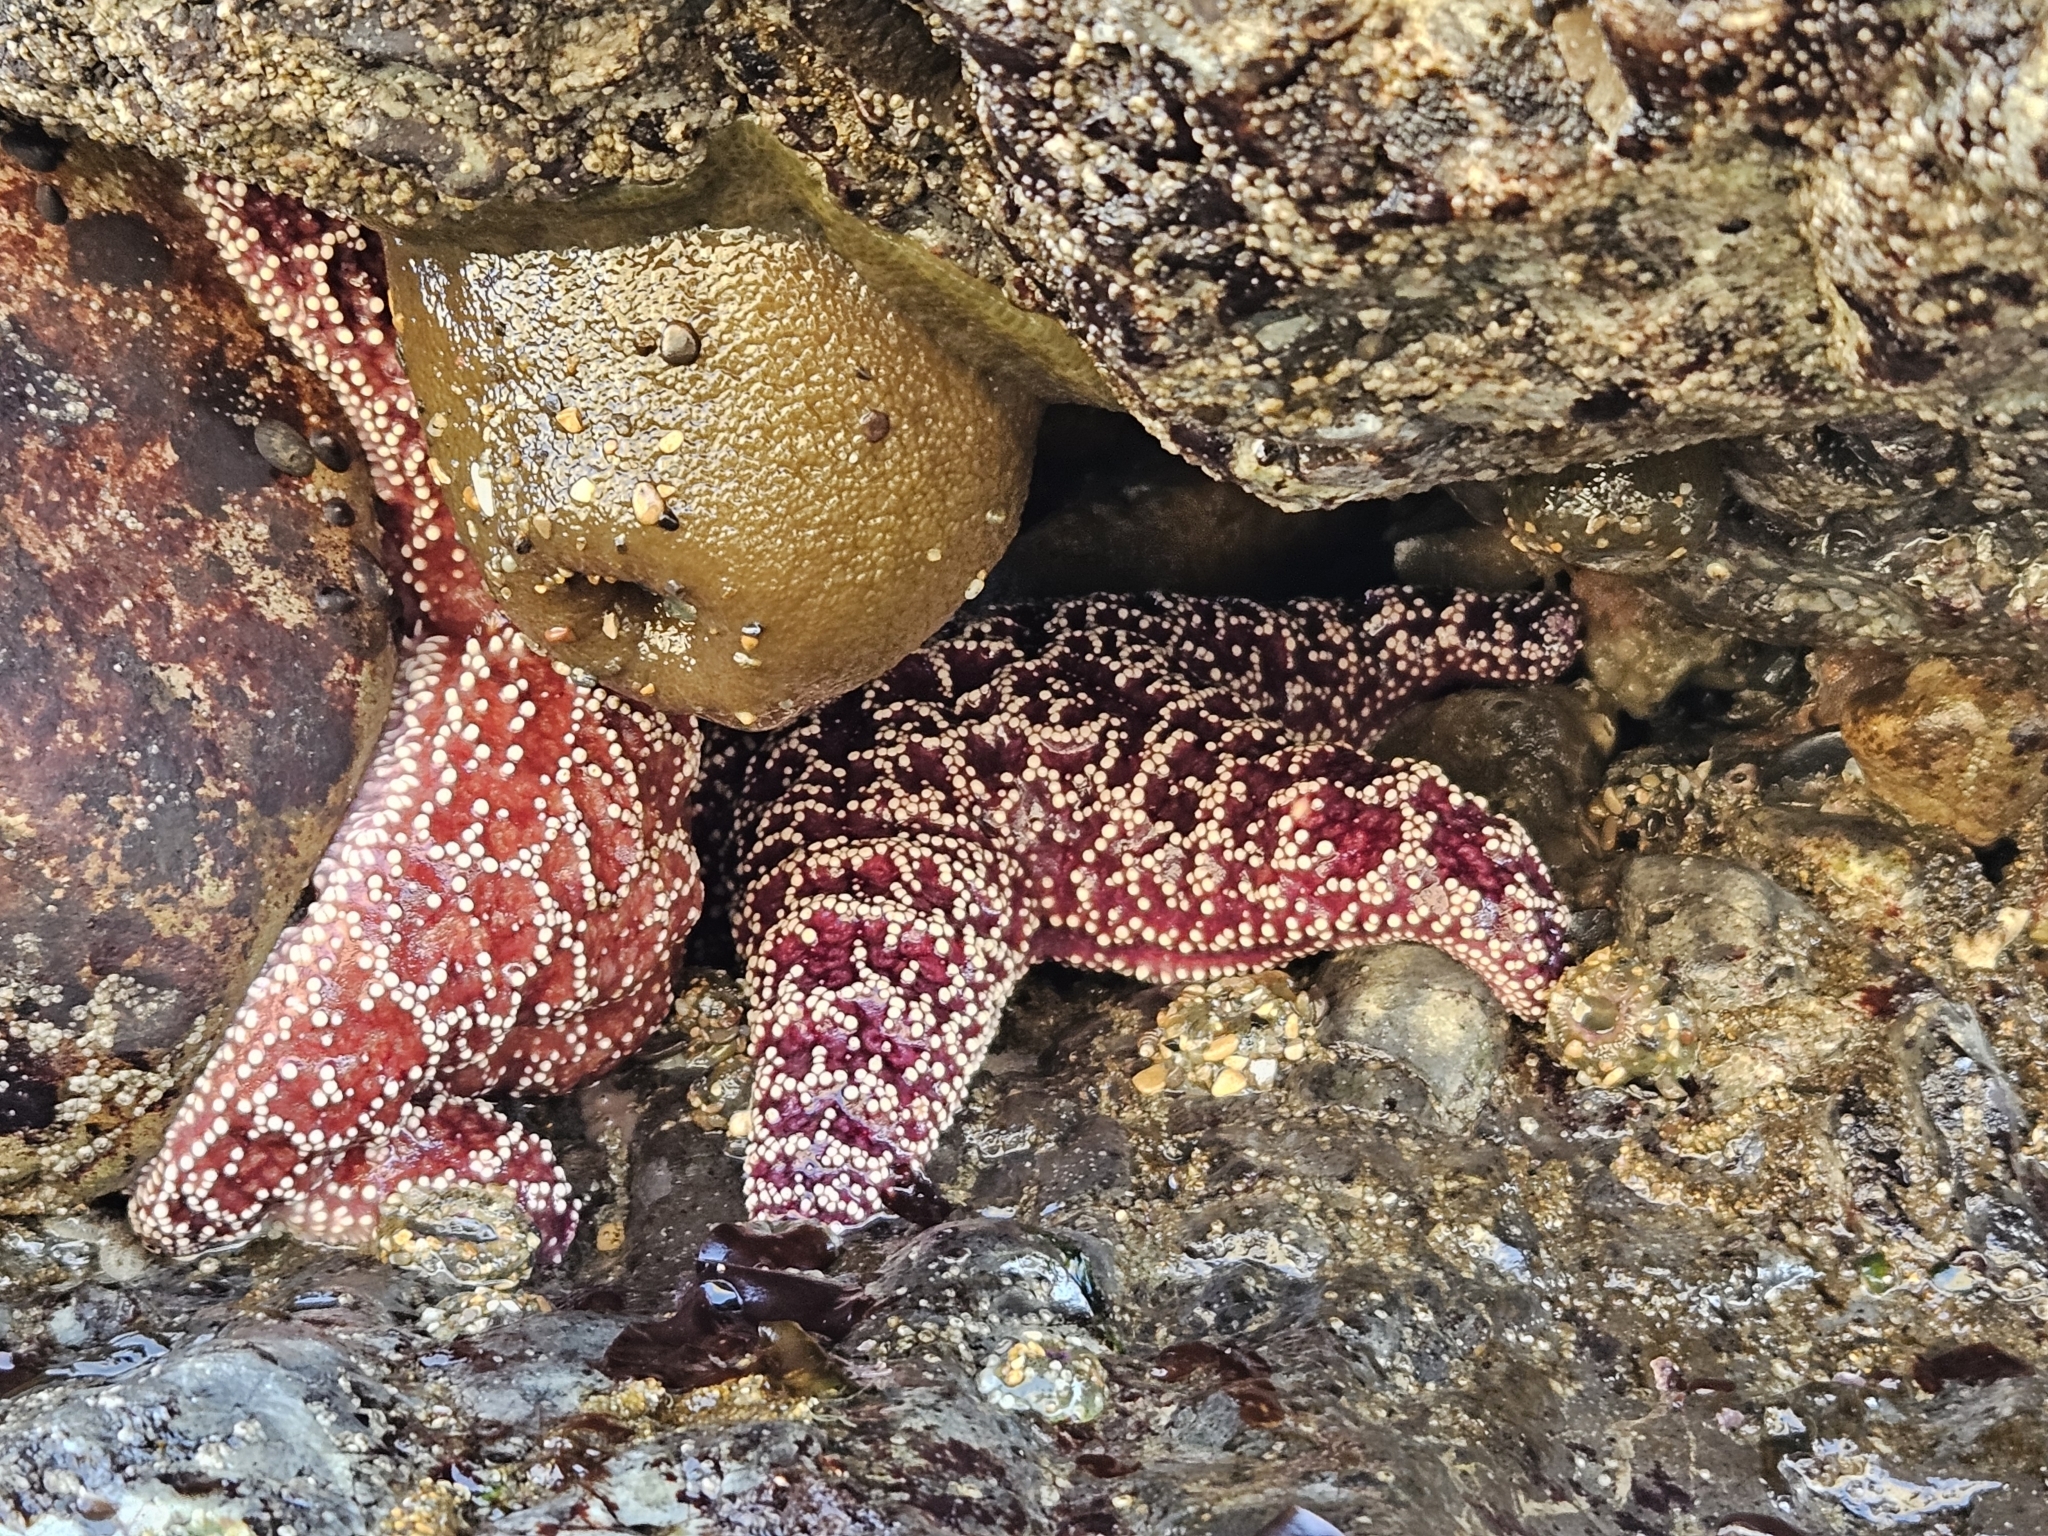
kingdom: Animalia
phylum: Echinodermata
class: Asteroidea
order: Forcipulatida
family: Asteriidae
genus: Pisaster
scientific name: Pisaster ochraceus
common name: Ochre stars
